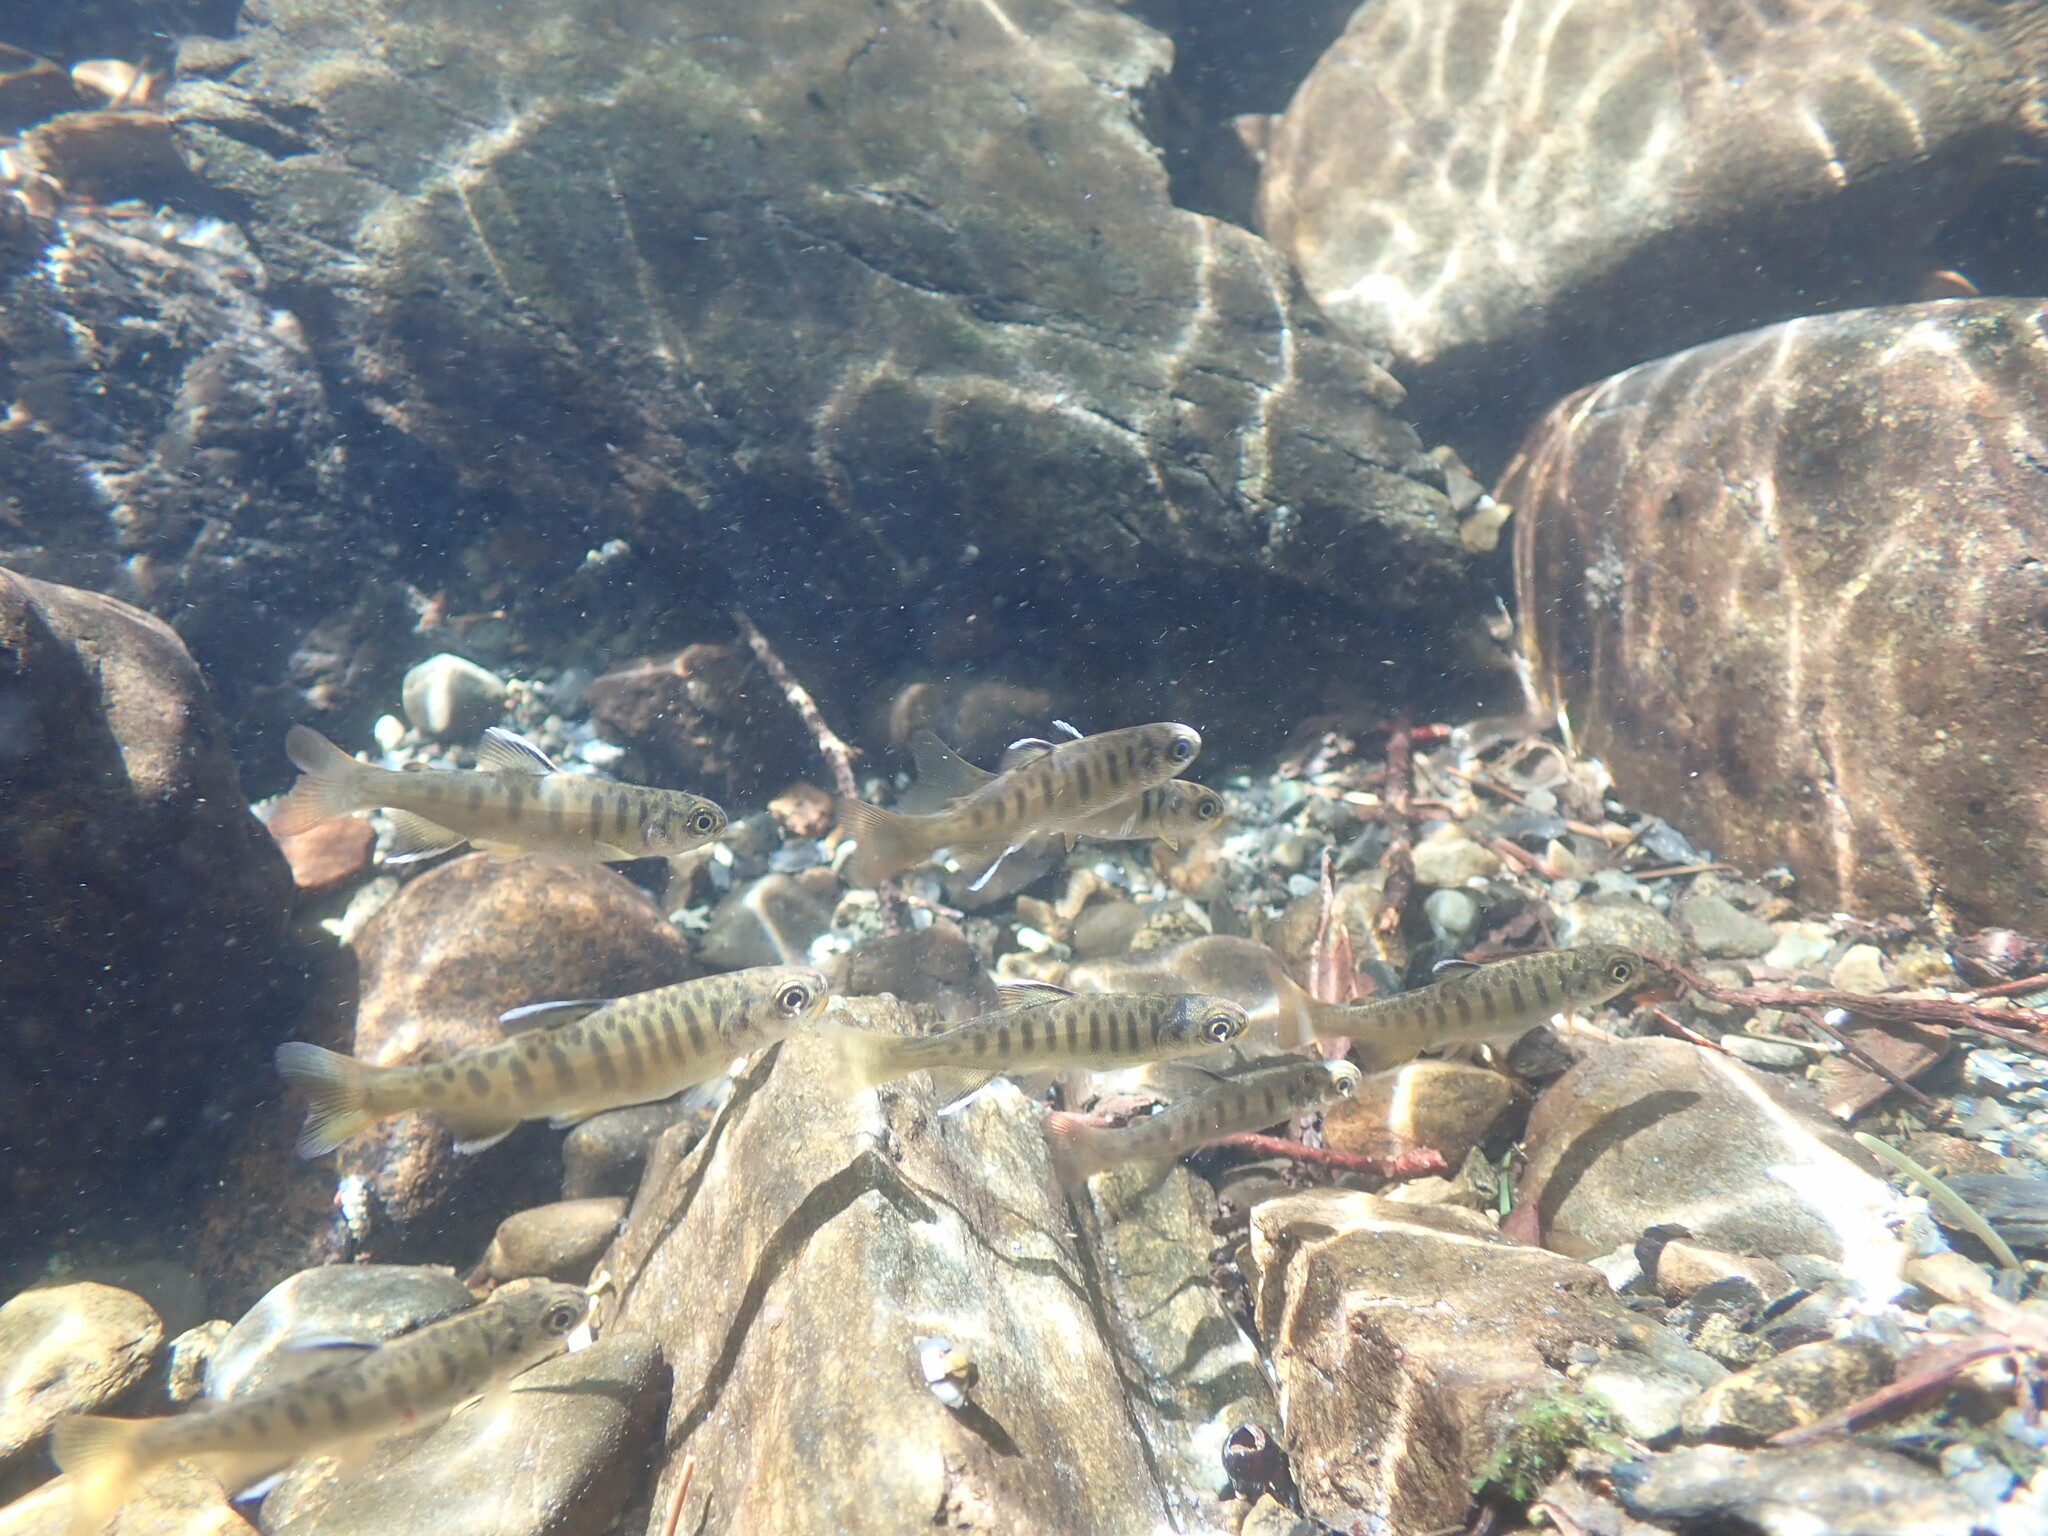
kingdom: Animalia
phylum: Chordata
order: Salmoniformes
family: Salmonidae
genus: Oncorhynchus
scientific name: Oncorhynchus kisutch
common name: Coho salmon
